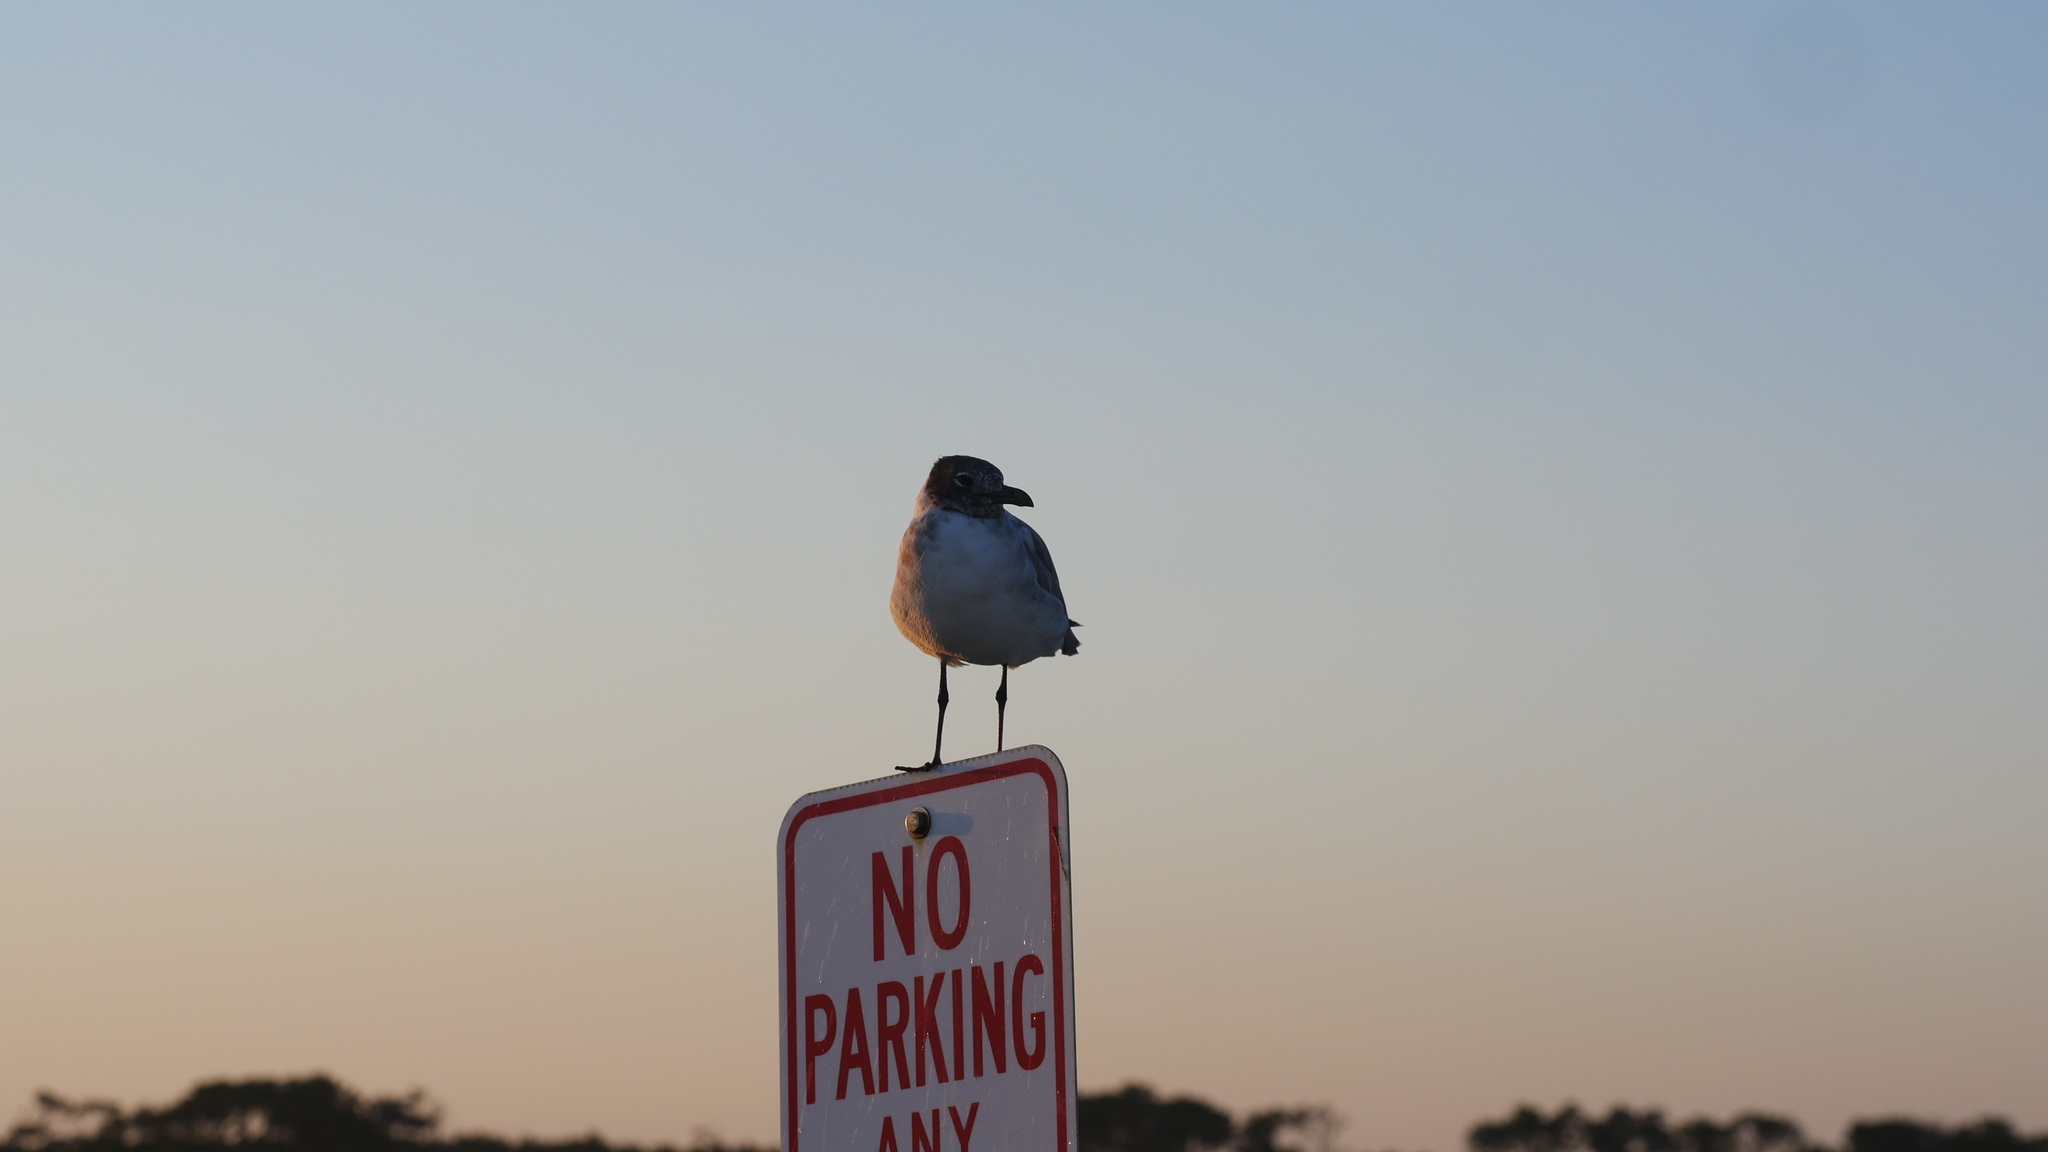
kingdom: Animalia
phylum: Chordata
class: Aves
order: Charadriiformes
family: Laridae
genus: Leucophaeus
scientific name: Leucophaeus atricilla
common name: Laughing gull
